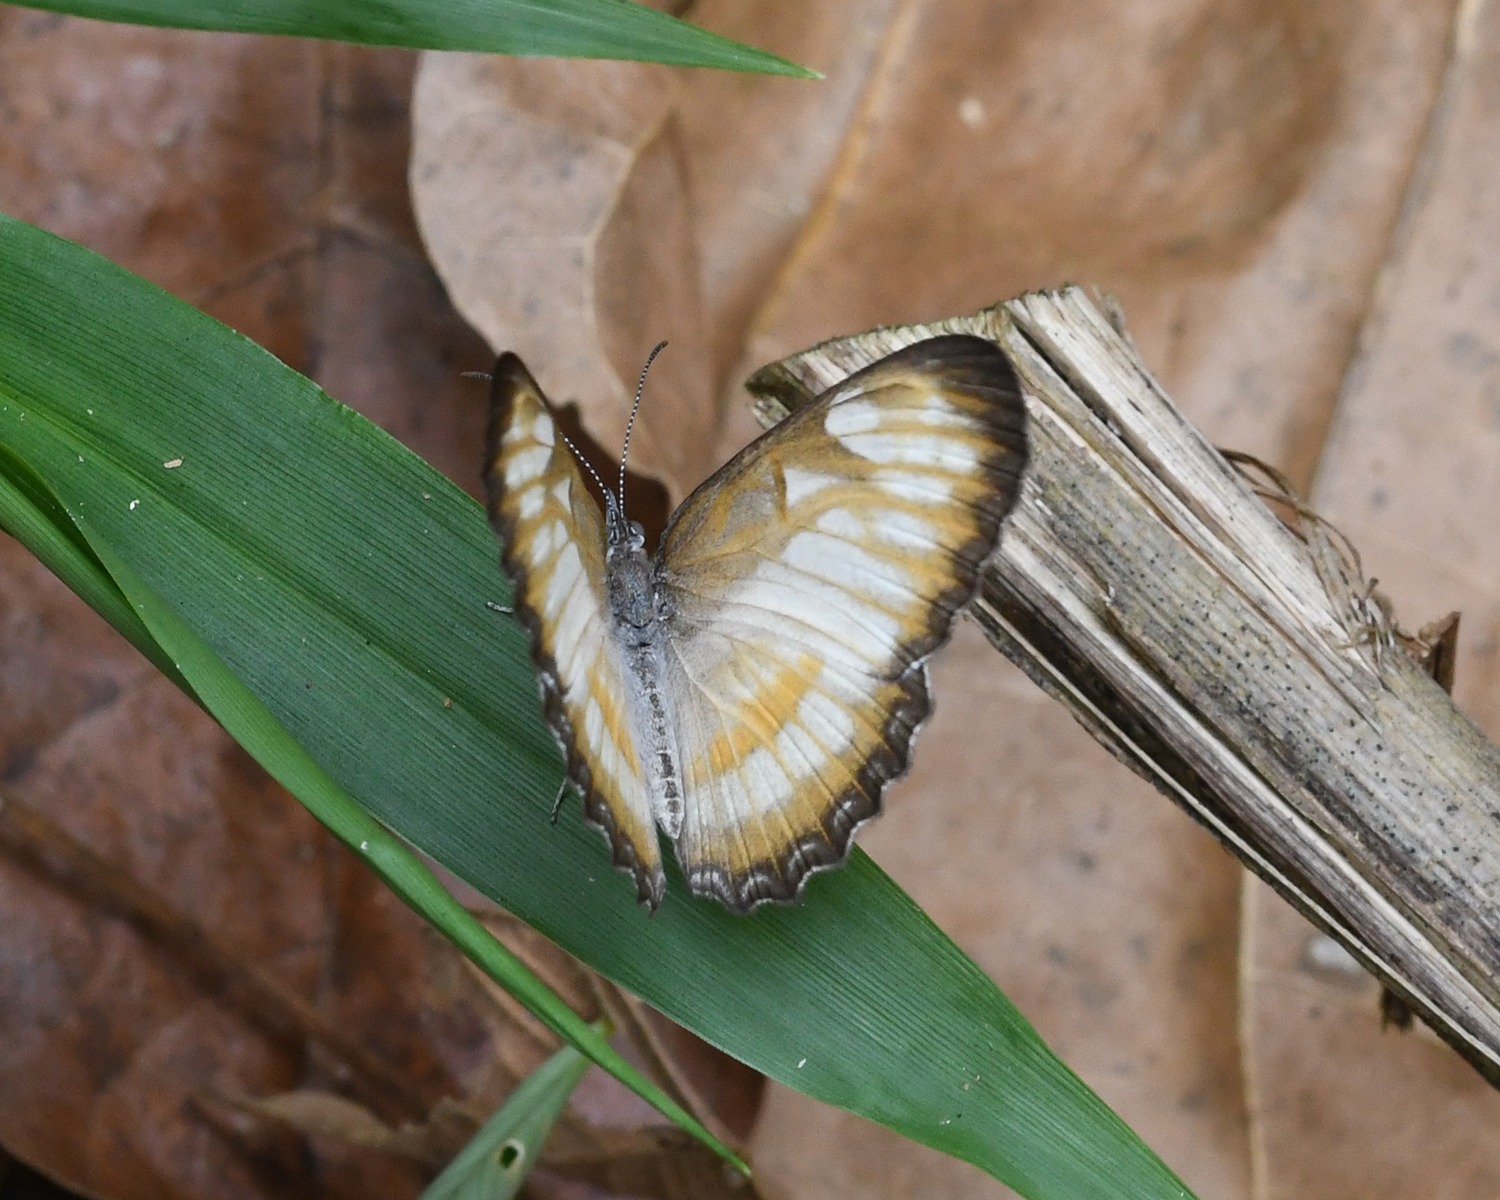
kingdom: Animalia
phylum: Arthropoda
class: Insecta
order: Lepidoptera
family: Nymphalidae
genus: Mestra
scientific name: Mestra hersilia
